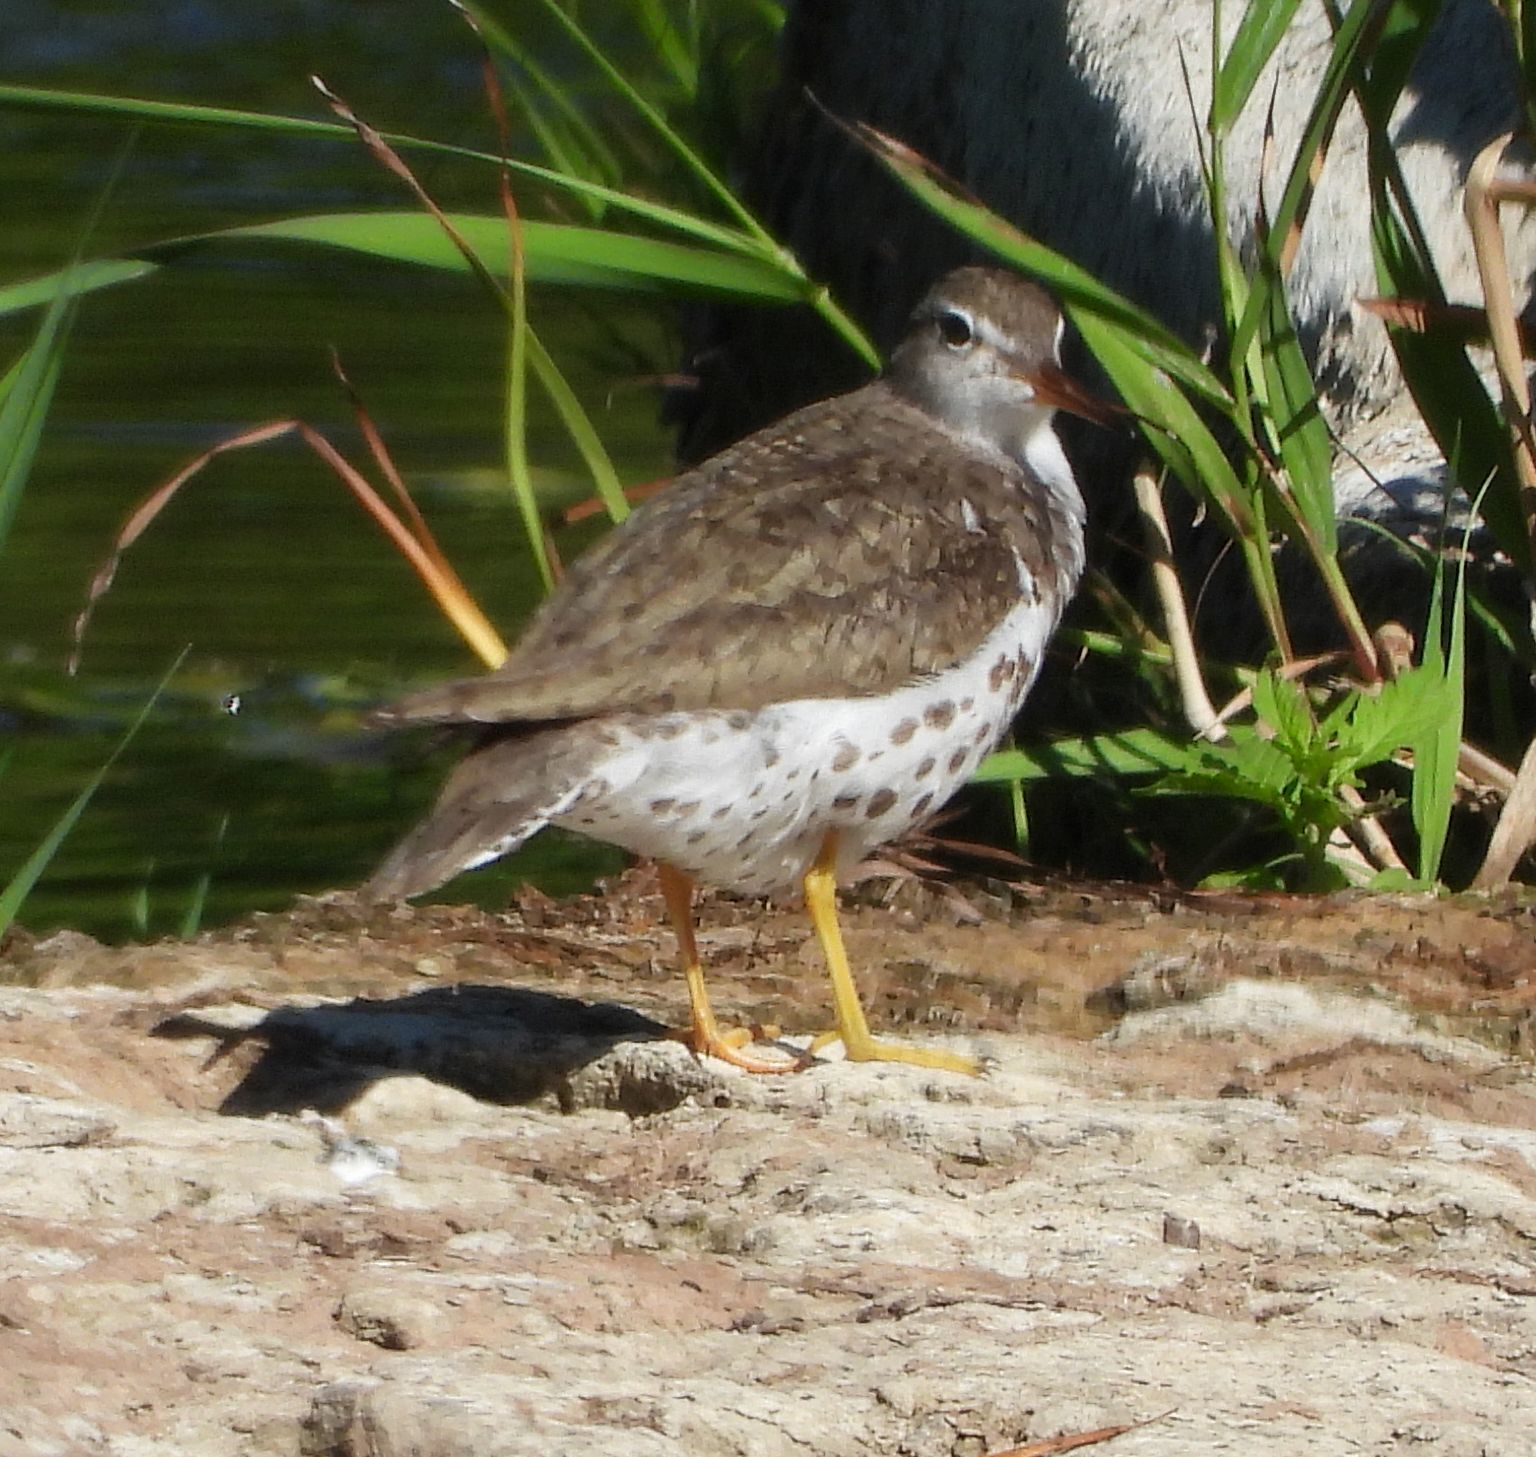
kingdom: Animalia
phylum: Chordata
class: Aves
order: Charadriiformes
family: Scolopacidae
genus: Actitis
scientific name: Actitis macularius
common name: Spotted sandpiper
